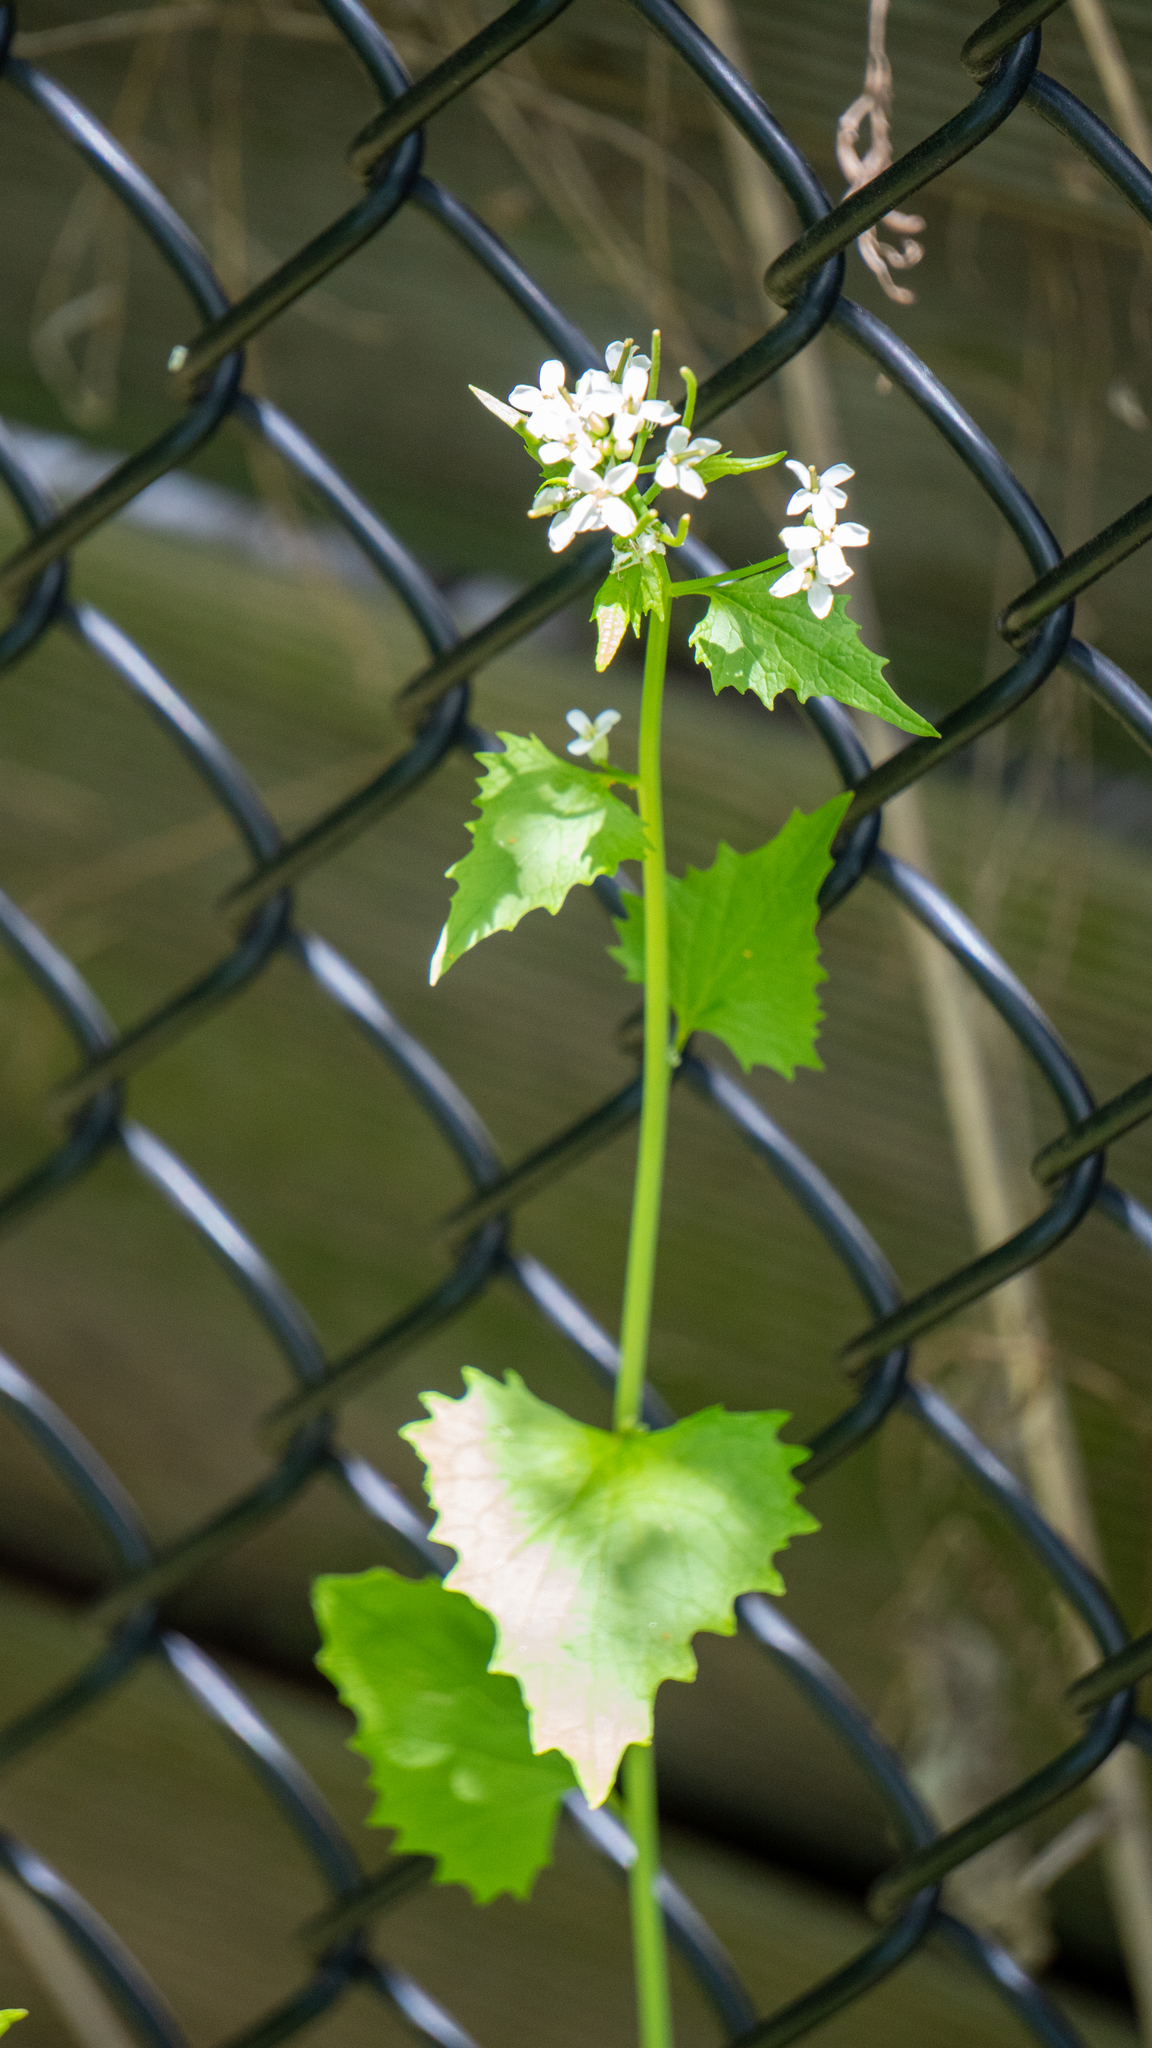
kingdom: Plantae
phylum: Tracheophyta
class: Magnoliopsida
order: Brassicales
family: Brassicaceae
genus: Alliaria
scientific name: Alliaria petiolata
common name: Garlic mustard
